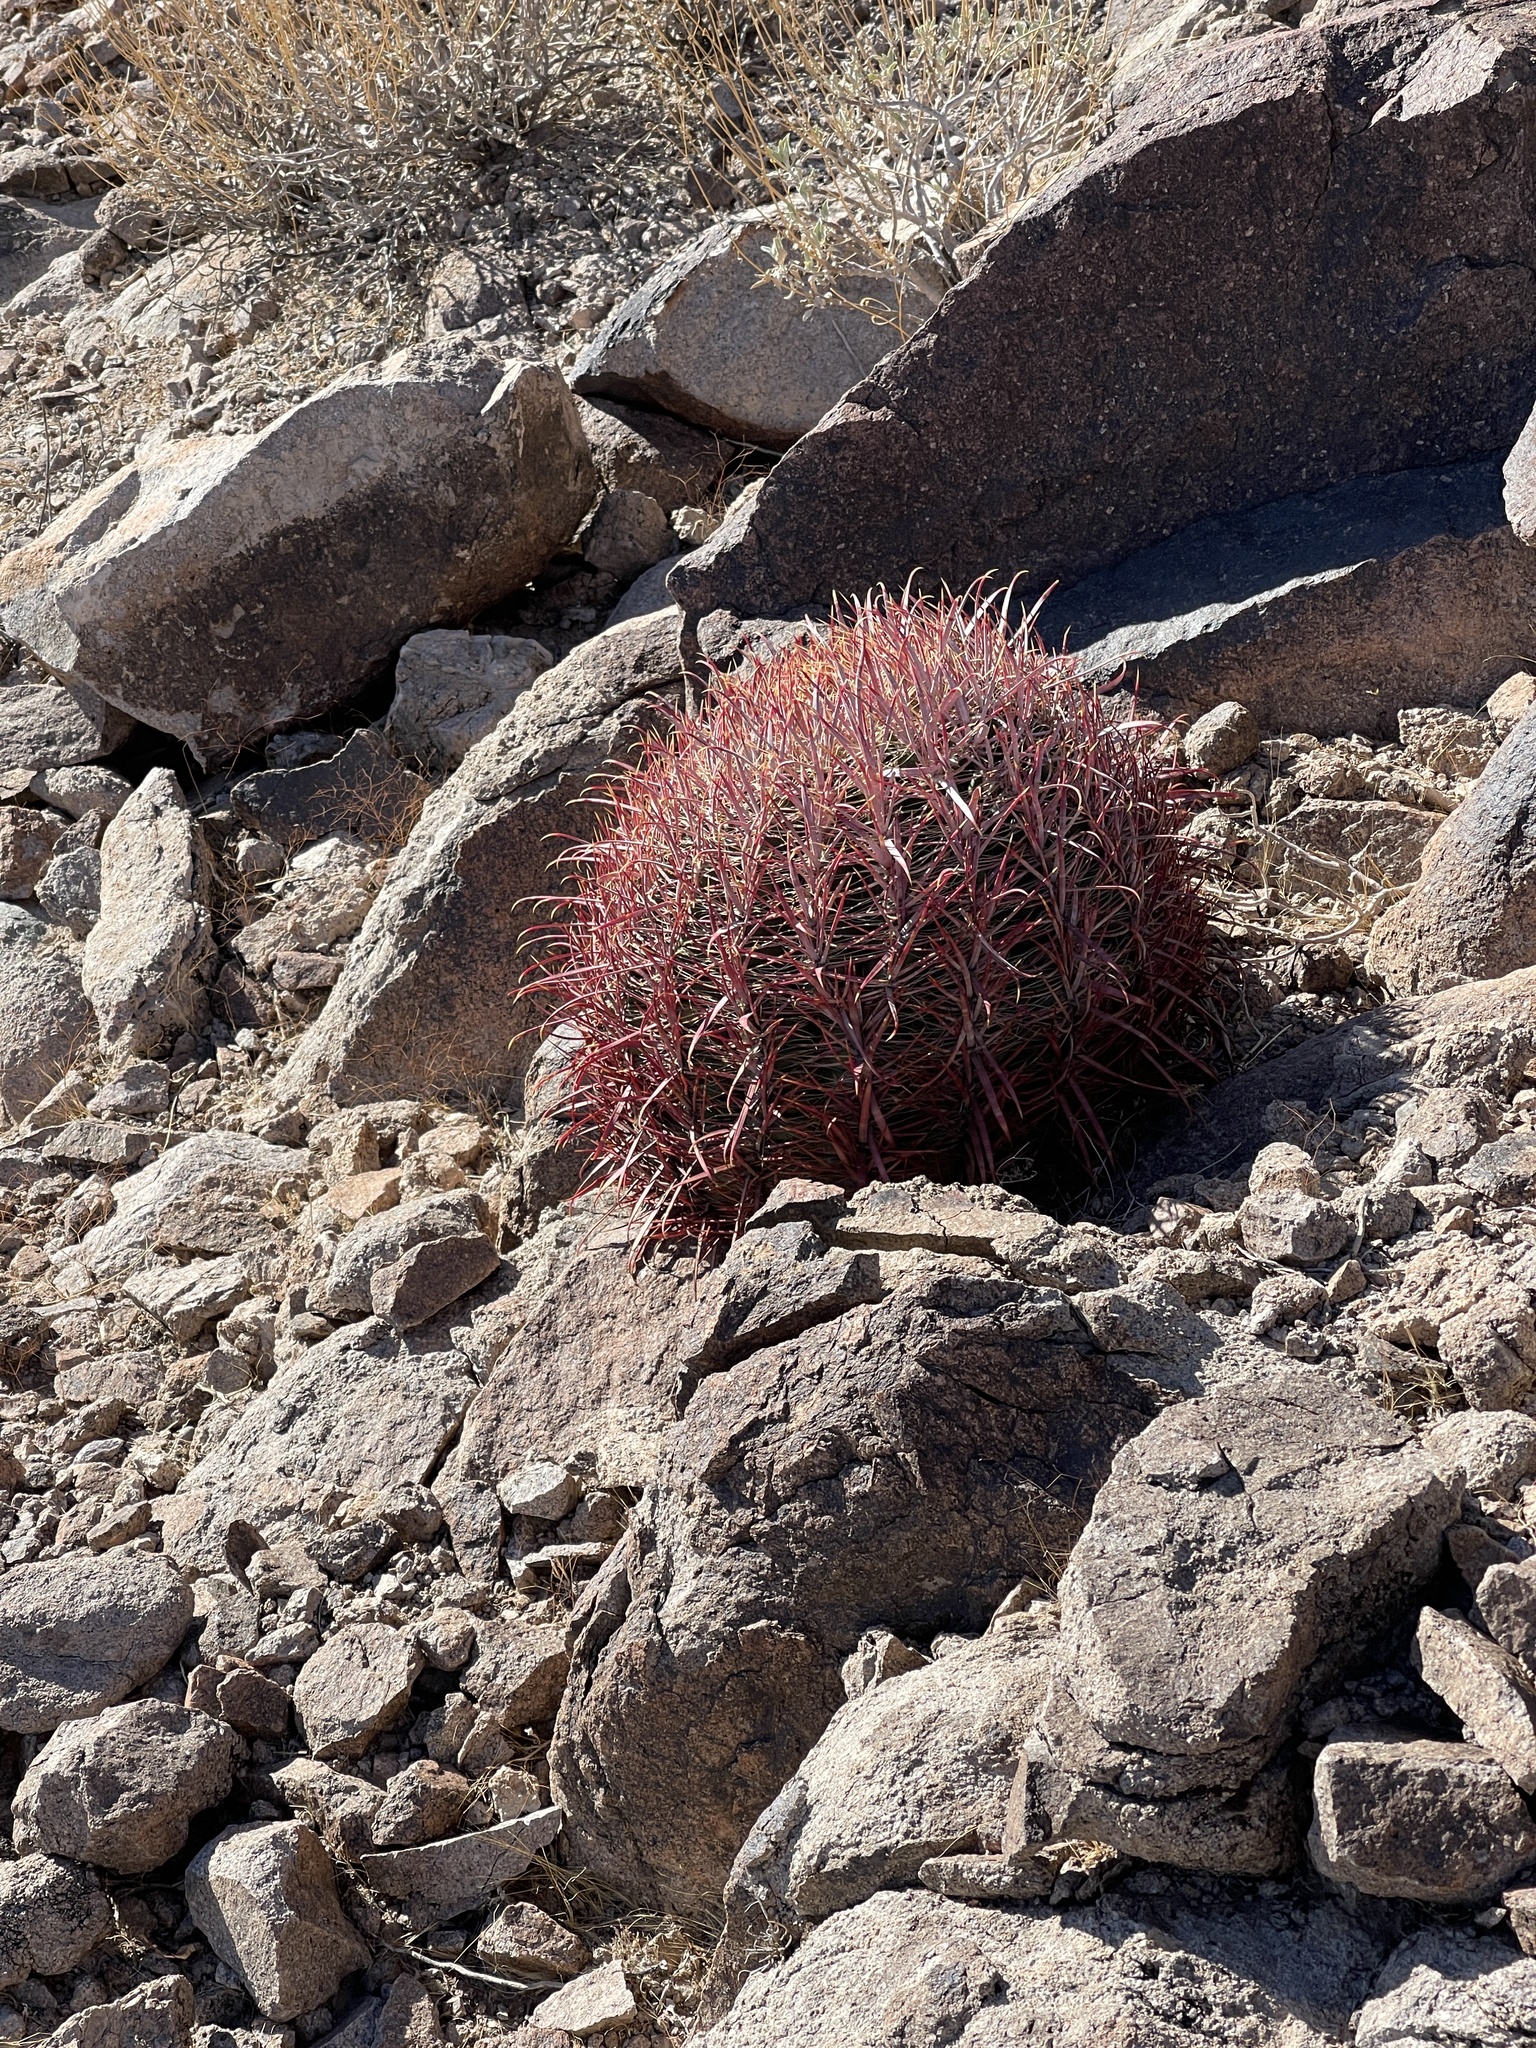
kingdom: Plantae
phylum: Tracheophyta
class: Magnoliopsida
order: Caryophyllales
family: Cactaceae
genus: Ferocactus
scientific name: Ferocactus cylindraceus
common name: California barrel cactus
